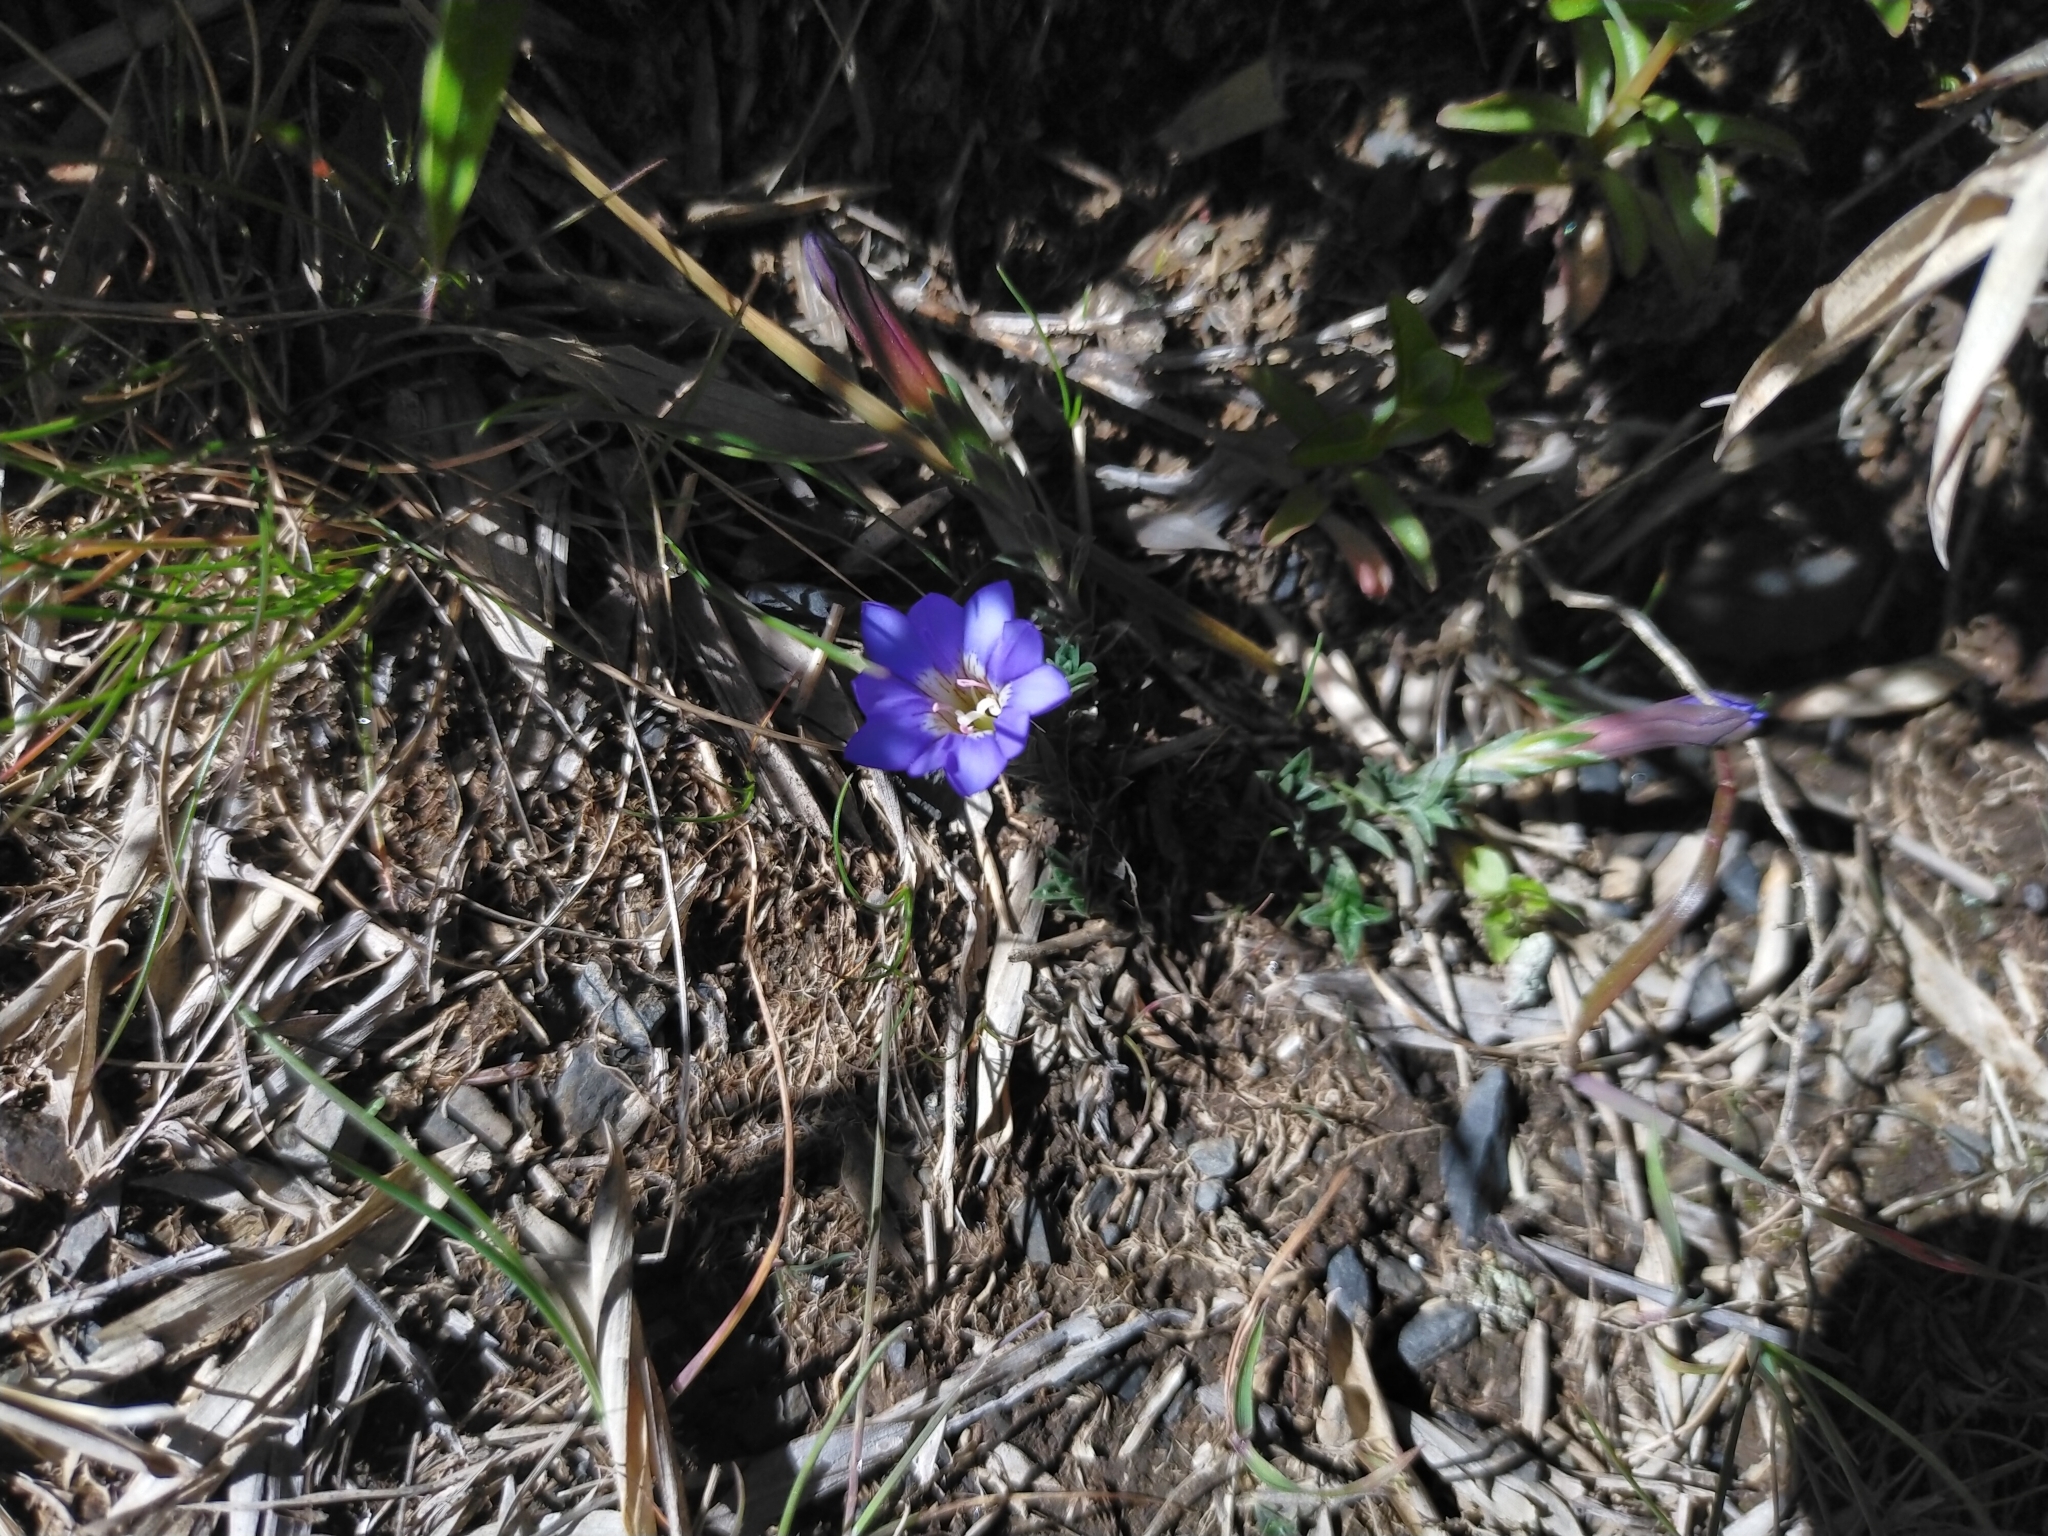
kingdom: Plantae
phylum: Tracheophyta
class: Magnoliopsida
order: Gentianales
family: Gentianaceae
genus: Gentiana
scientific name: Gentiana arisanensis
